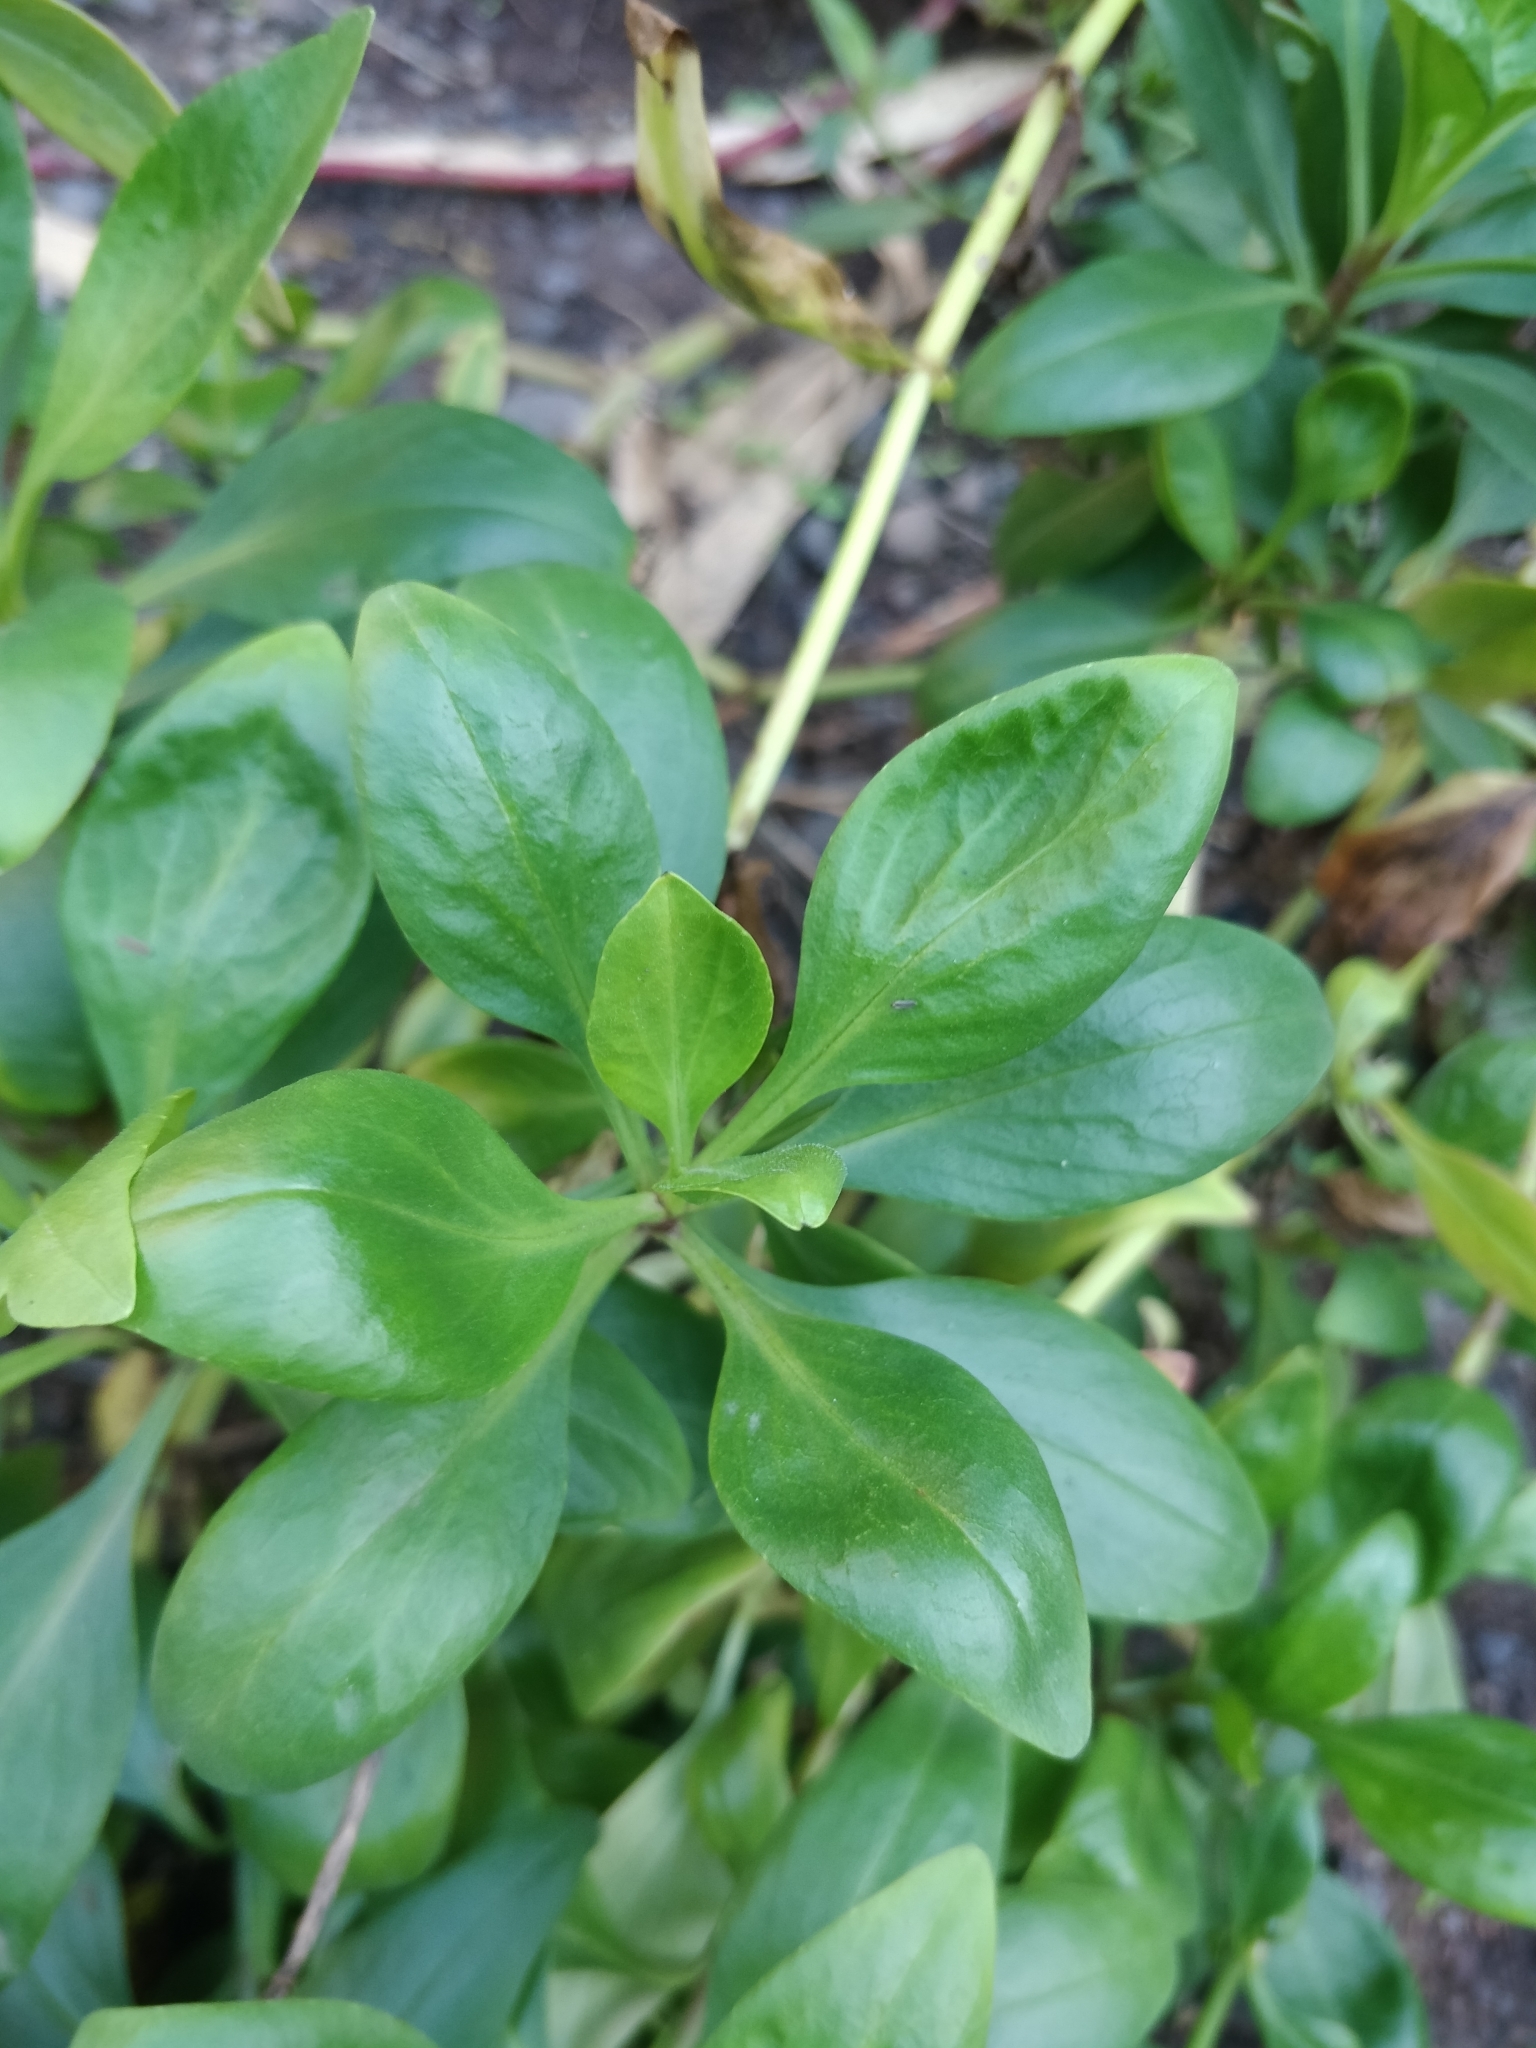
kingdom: Plantae
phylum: Tracheophyta
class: Magnoliopsida
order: Dipsacales
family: Caprifoliaceae
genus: Centranthus
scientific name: Centranthus ruber
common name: Red valerian
